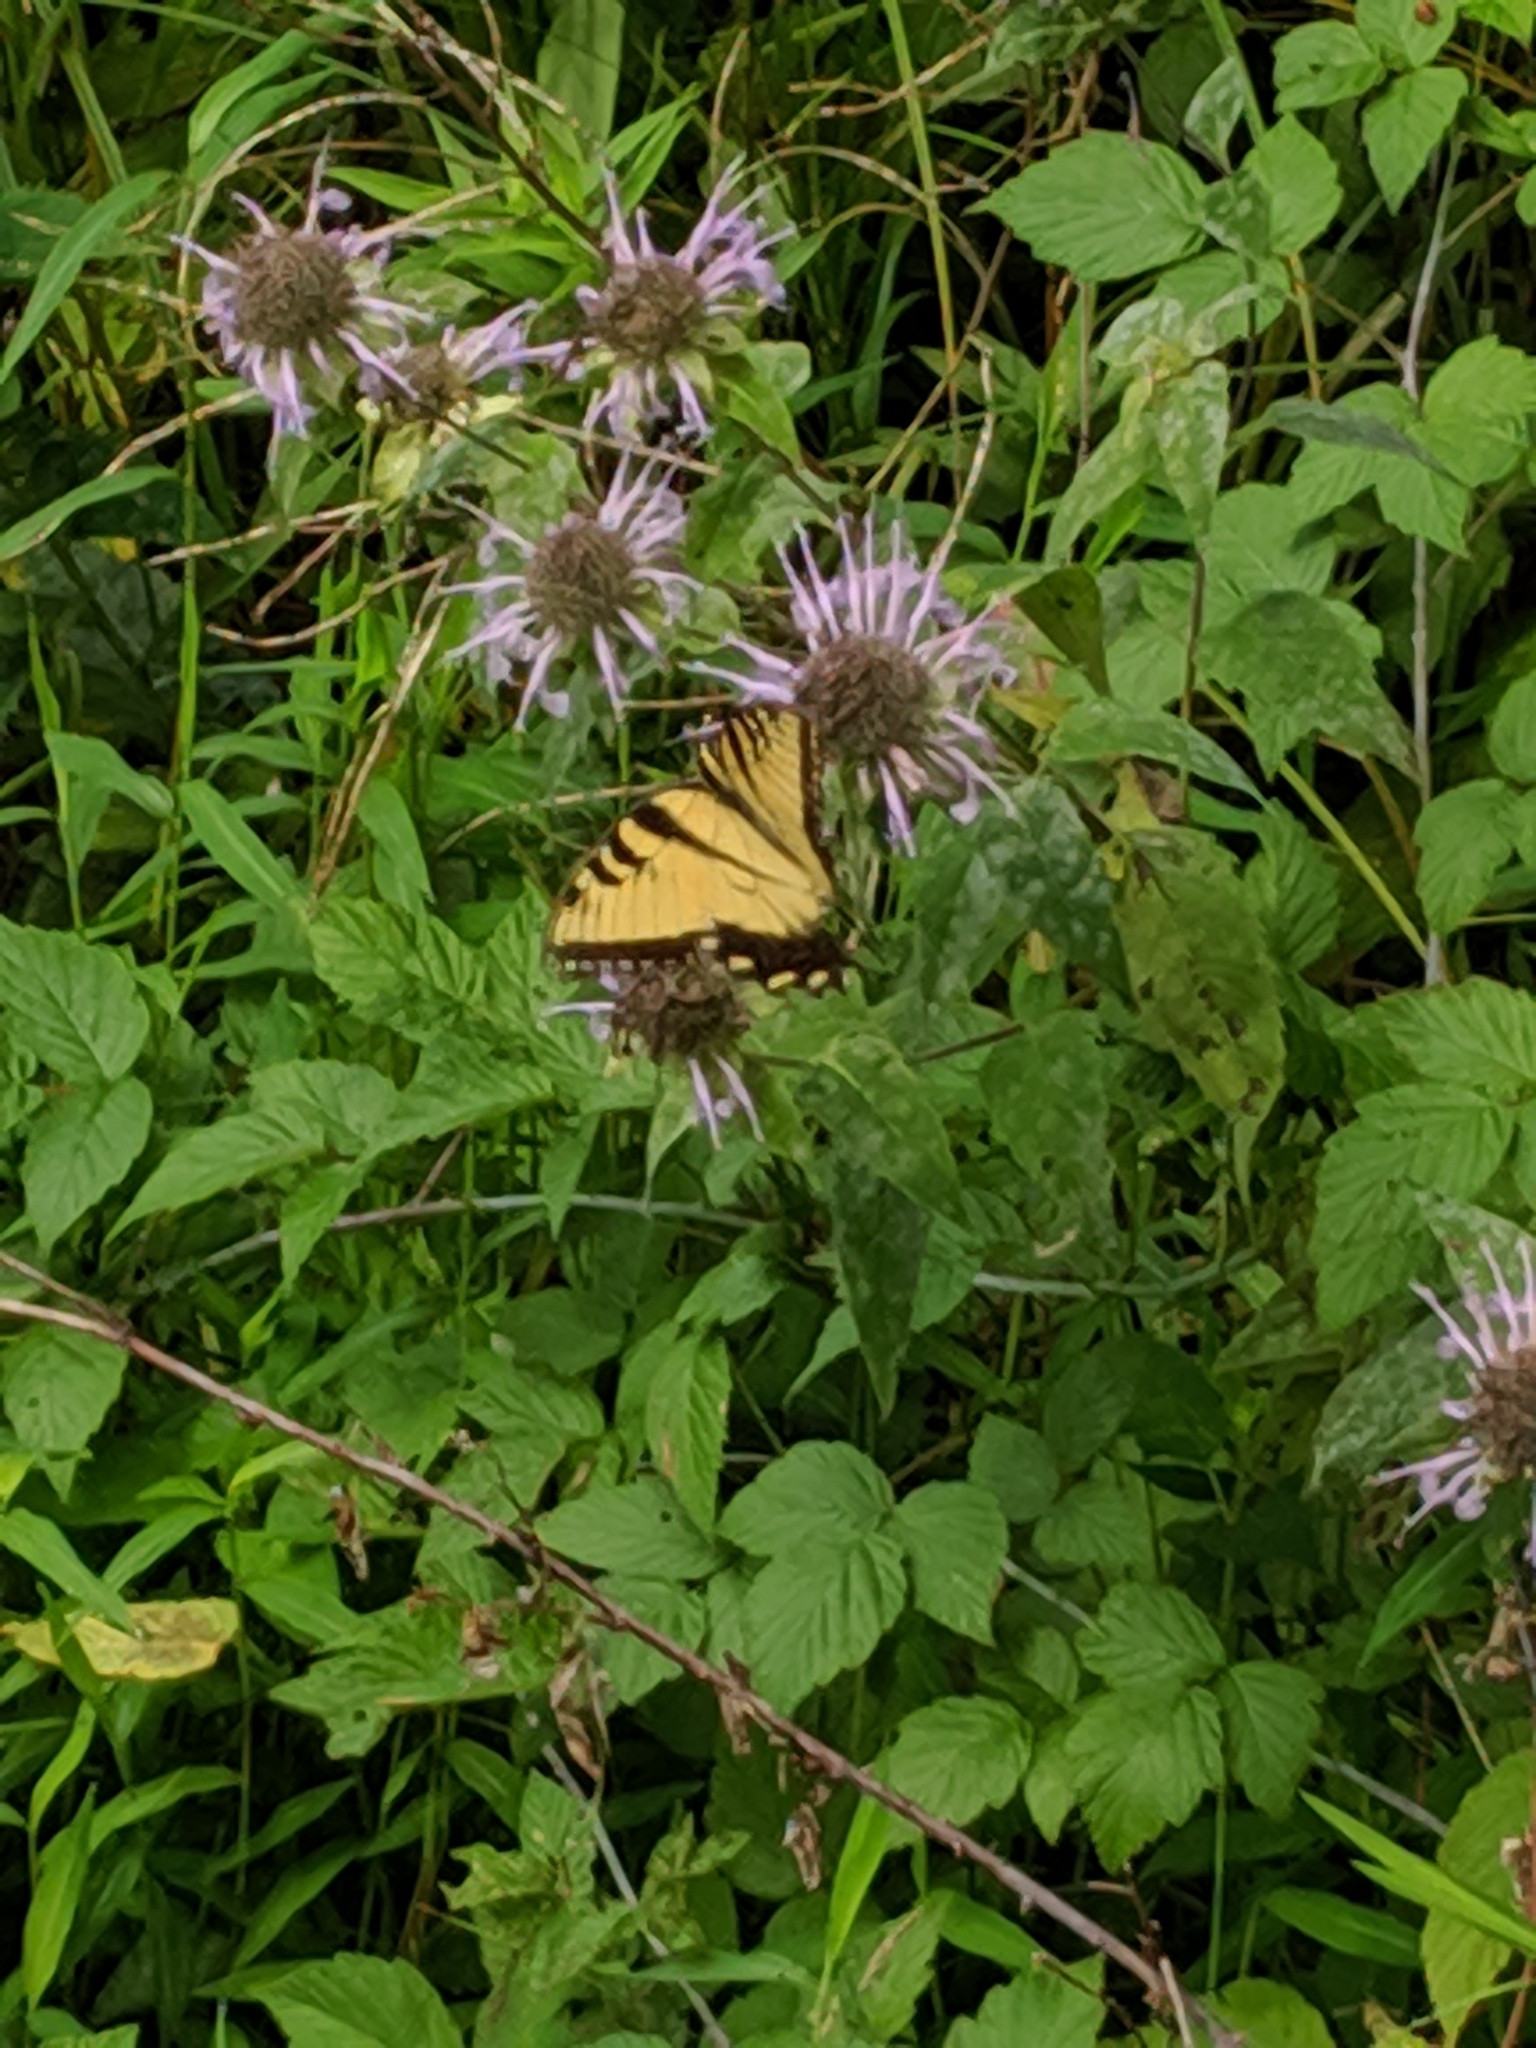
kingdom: Animalia
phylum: Arthropoda
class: Insecta
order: Lepidoptera
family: Papilionidae
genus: Papilio
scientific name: Papilio glaucus
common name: Tiger swallowtail
